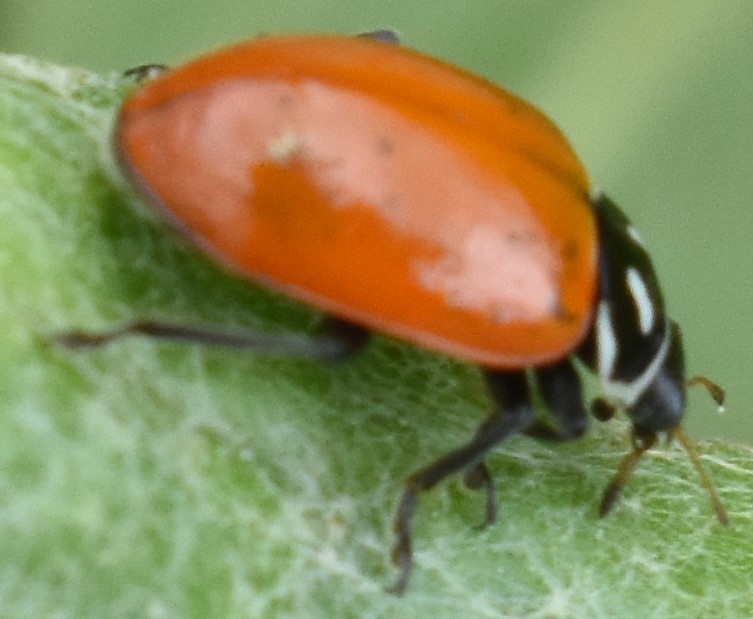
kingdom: Animalia
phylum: Arthropoda
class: Insecta
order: Coleoptera
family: Coccinellidae
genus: Hippodamia
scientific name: Hippodamia convergens
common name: Convergent lady beetle
